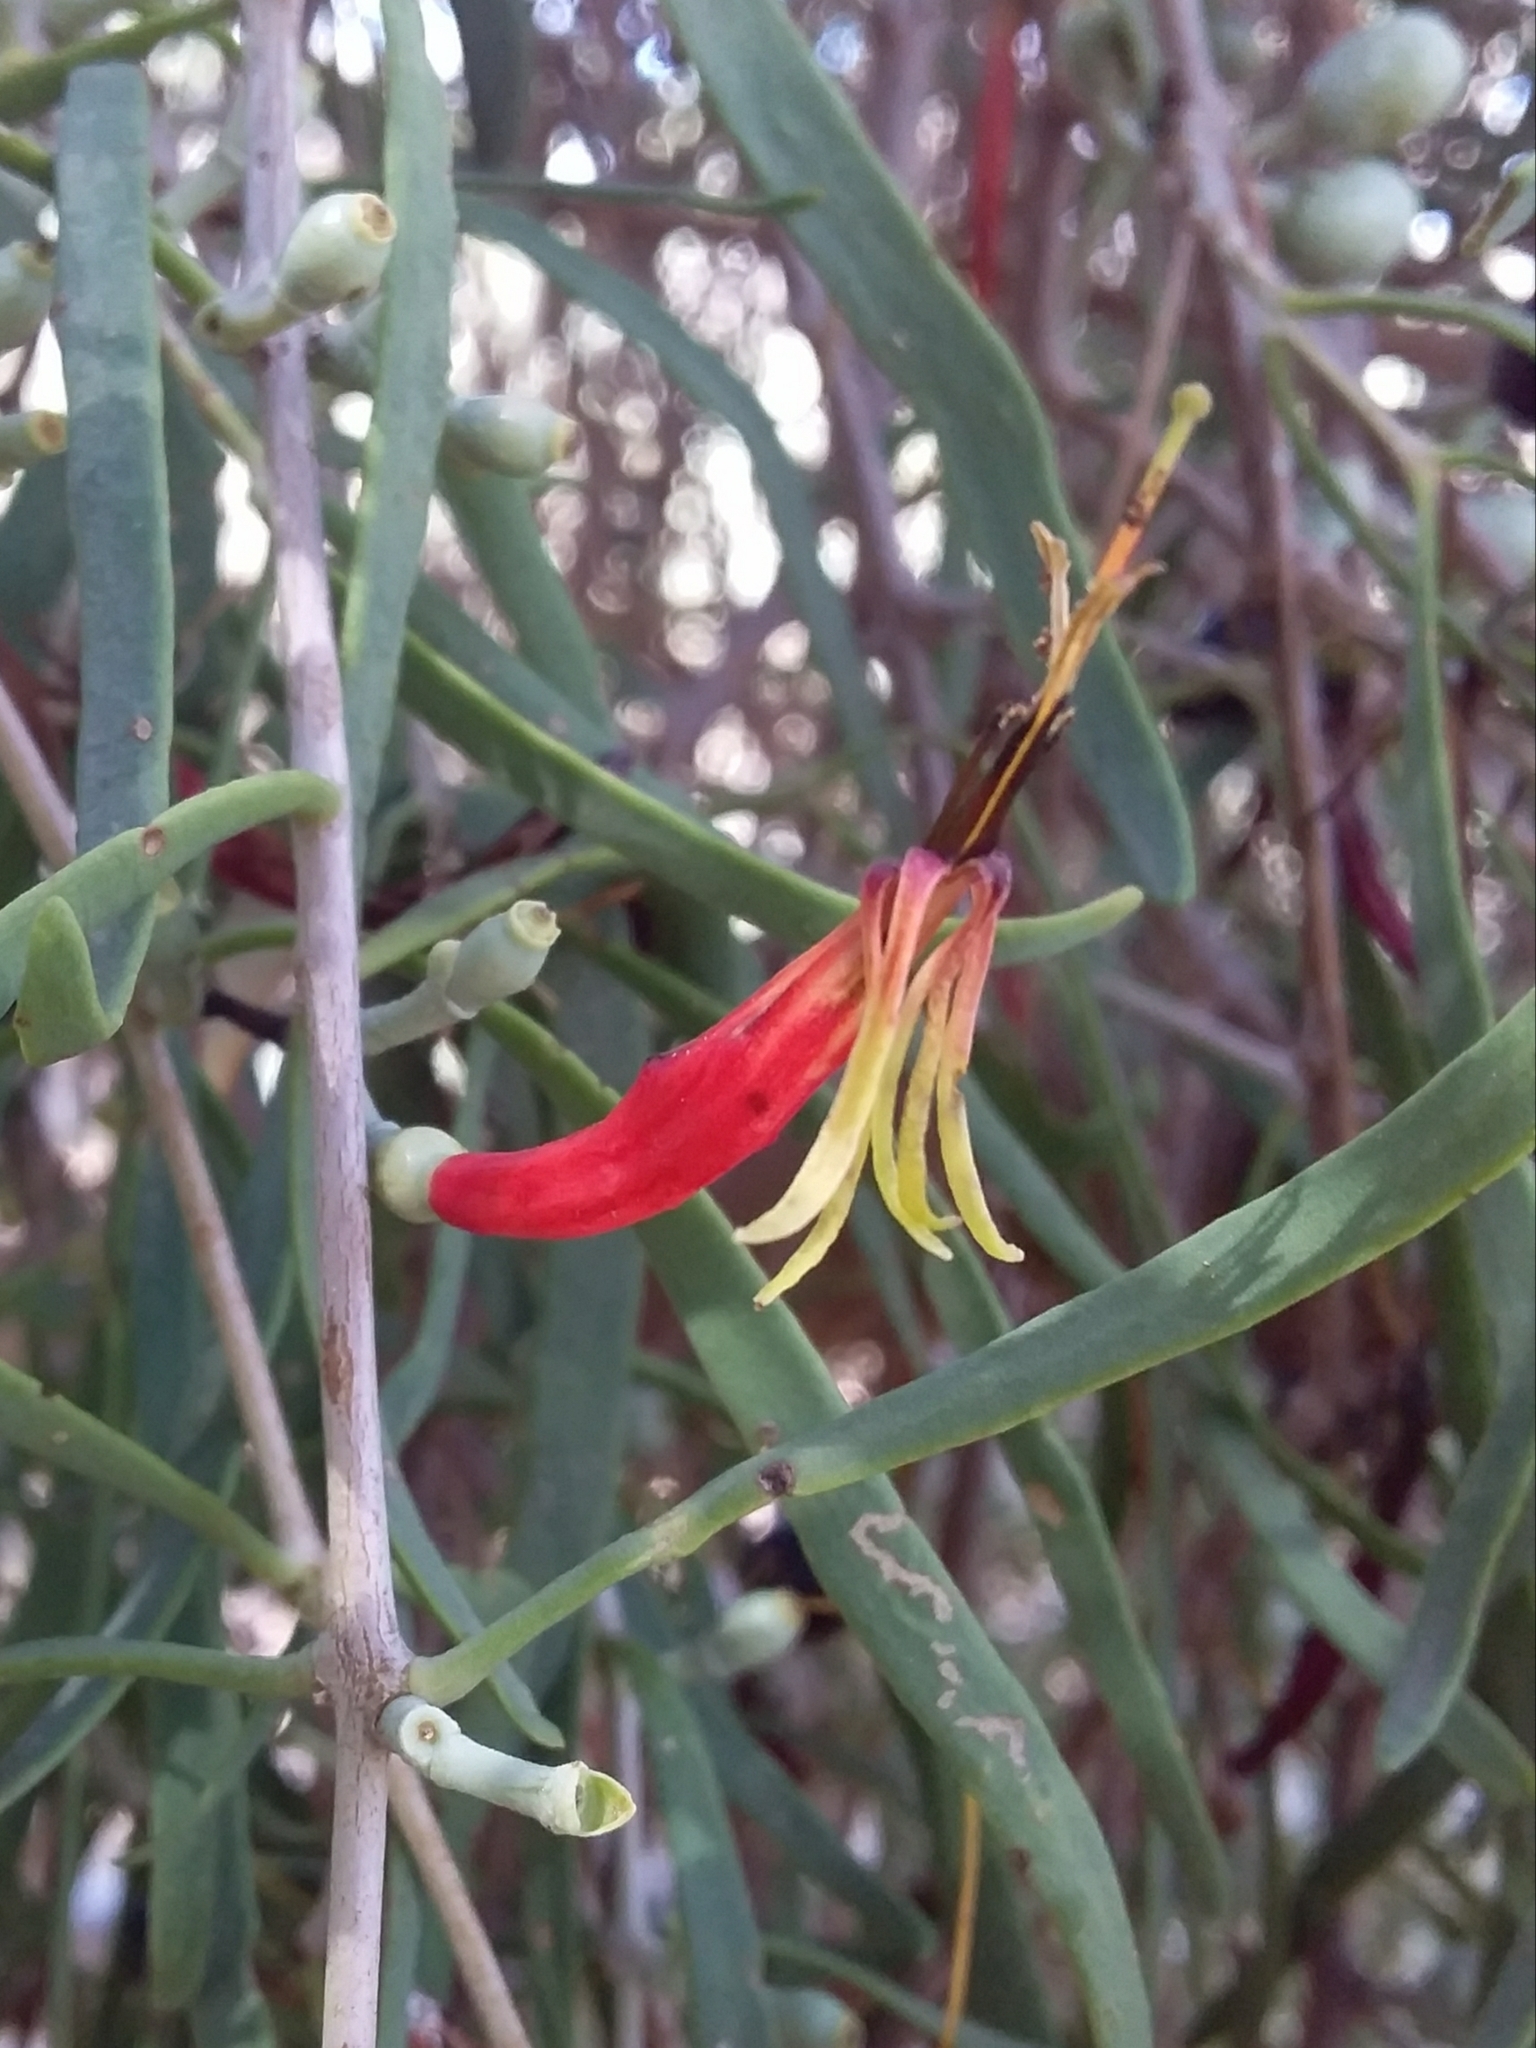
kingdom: Plantae
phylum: Tracheophyta
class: Magnoliopsida
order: Santalales
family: Loranthaceae
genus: Lysiana
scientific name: Lysiana exocarpi
